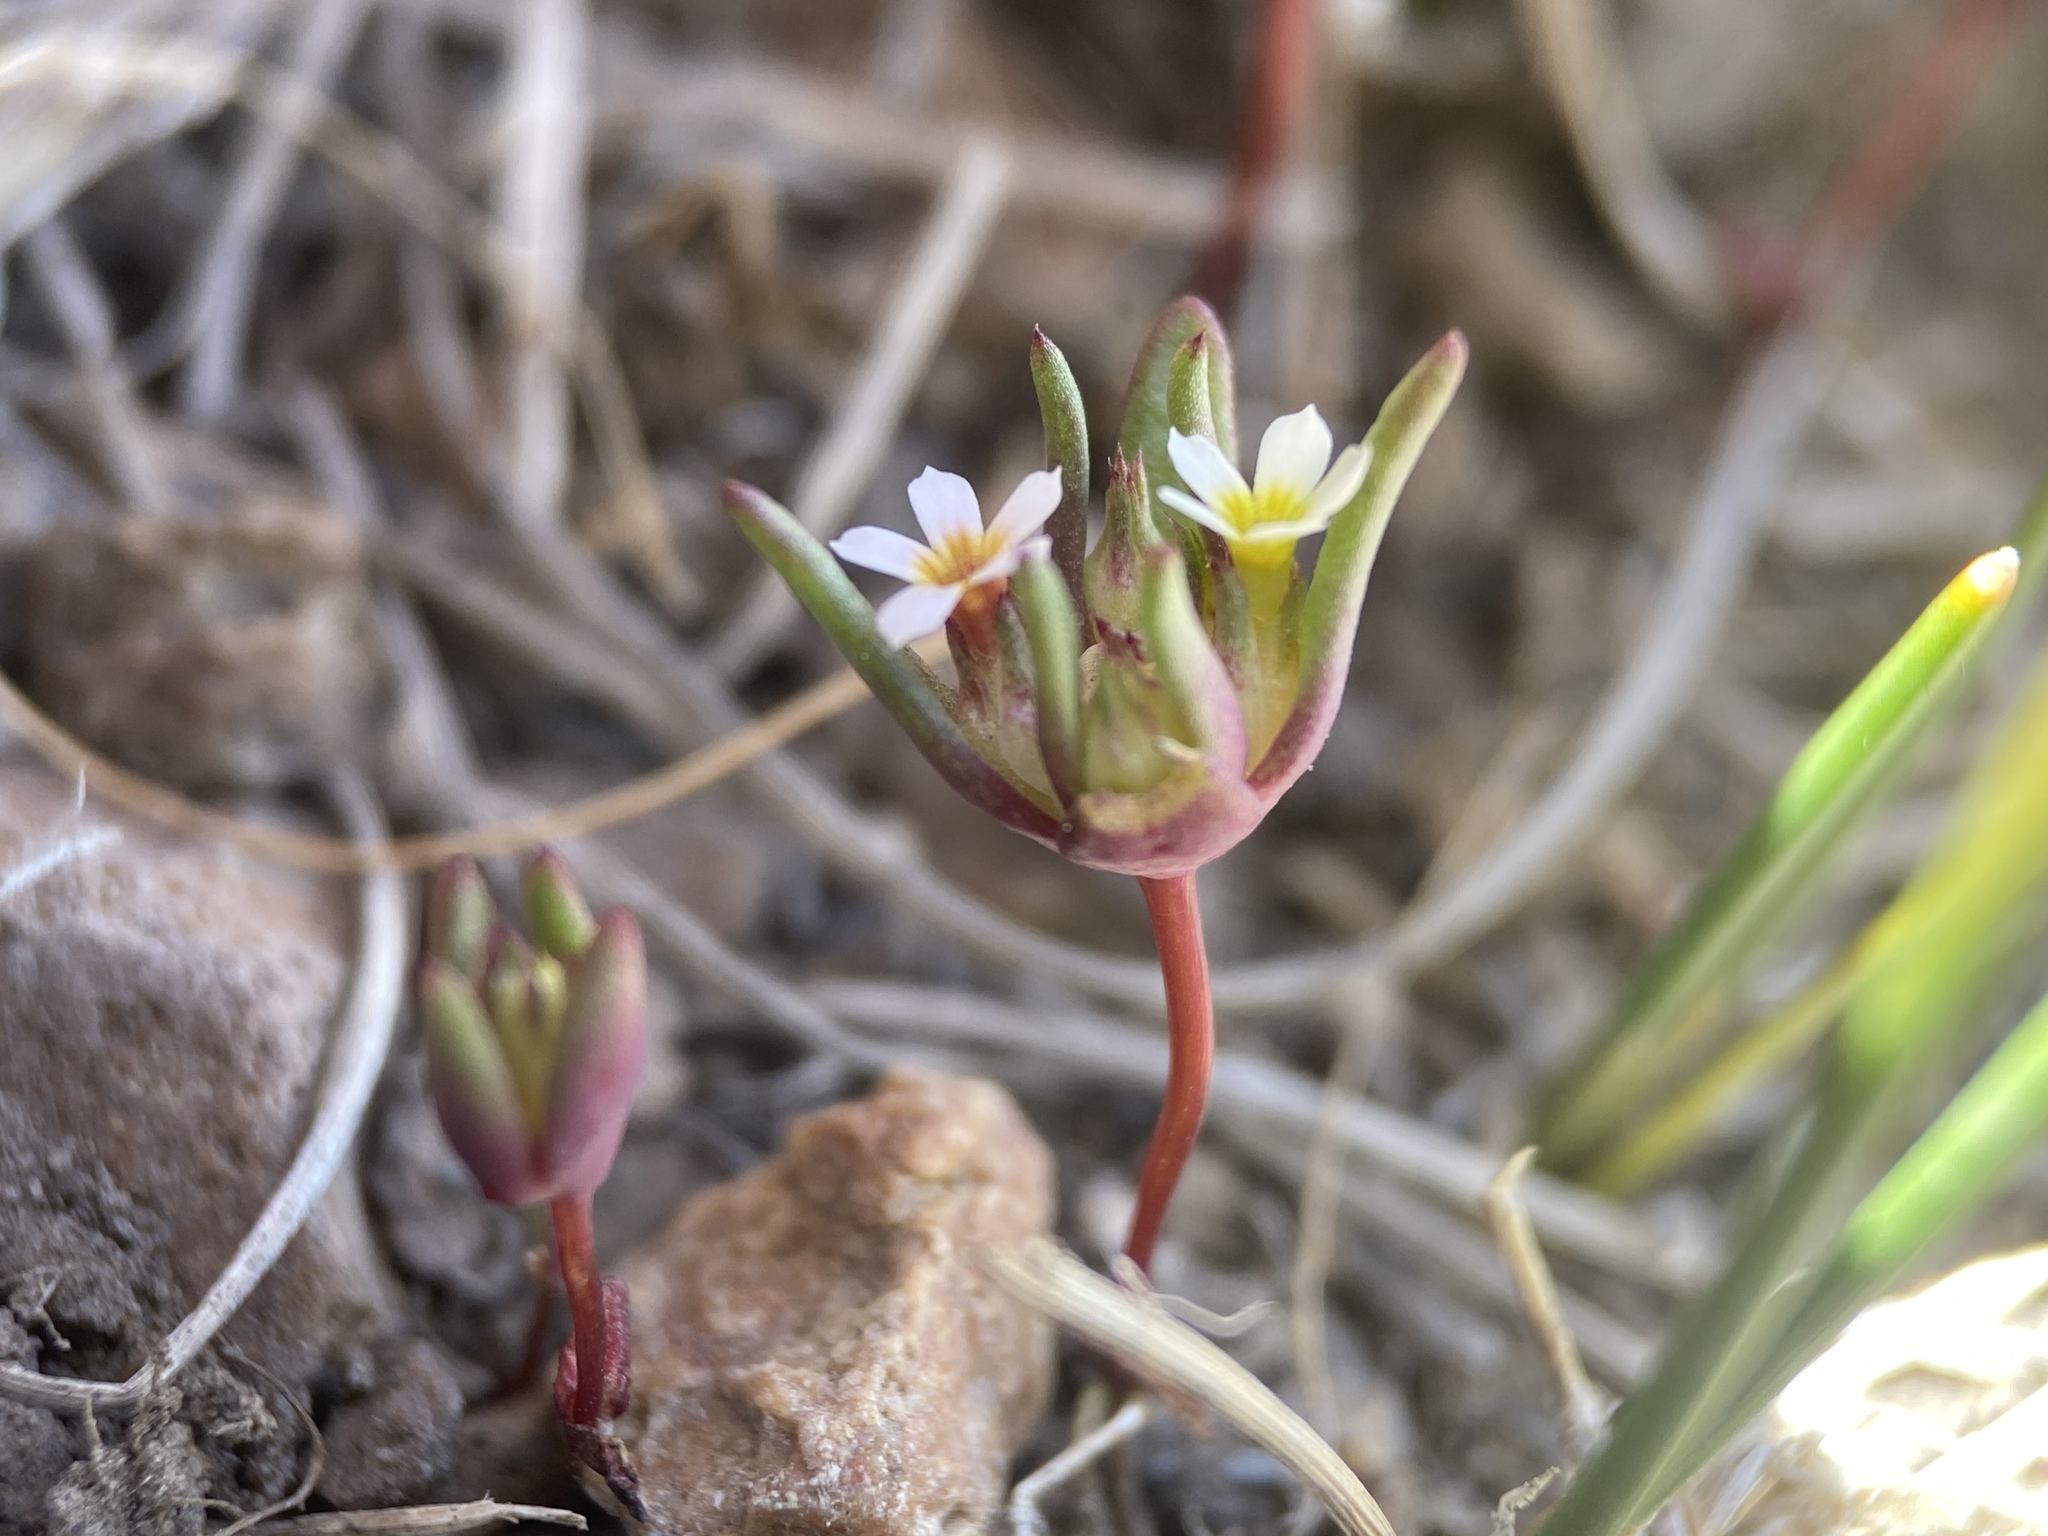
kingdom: Plantae
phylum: Tracheophyta
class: Magnoliopsida
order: Ericales
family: Polemoniaceae
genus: Gymnosteris
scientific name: Gymnosteris parvula
